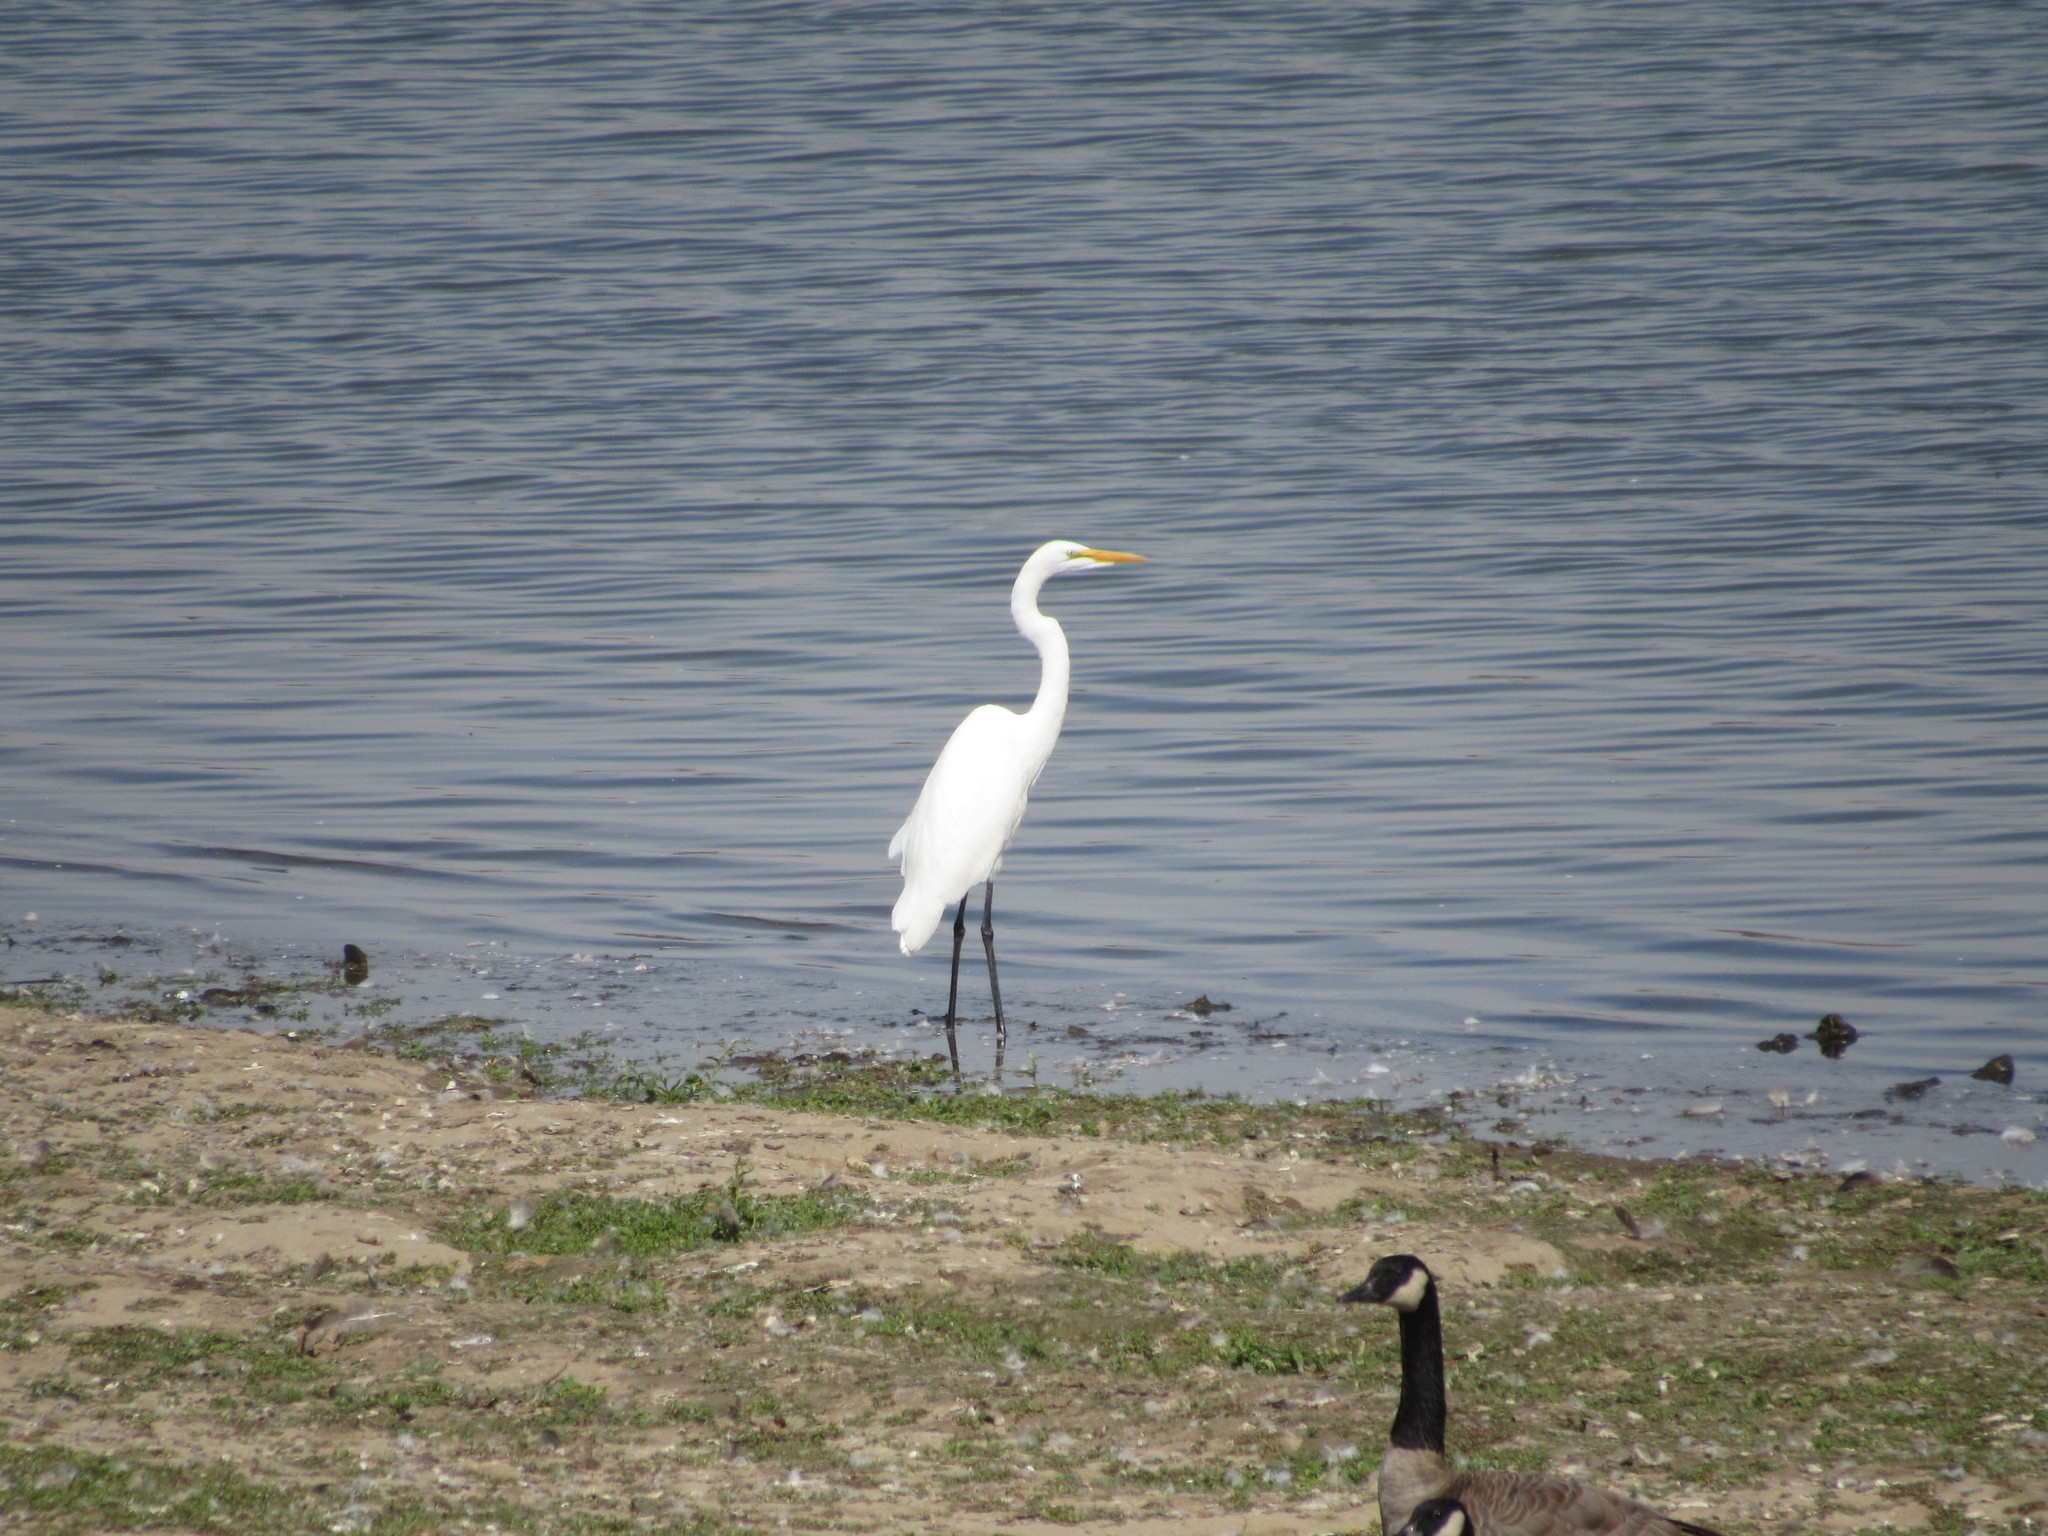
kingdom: Animalia
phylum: Chordata
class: Aves
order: Pelecaniformes
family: Ardeidae
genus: Ardea
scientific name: Ardea alba
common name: Great egret
